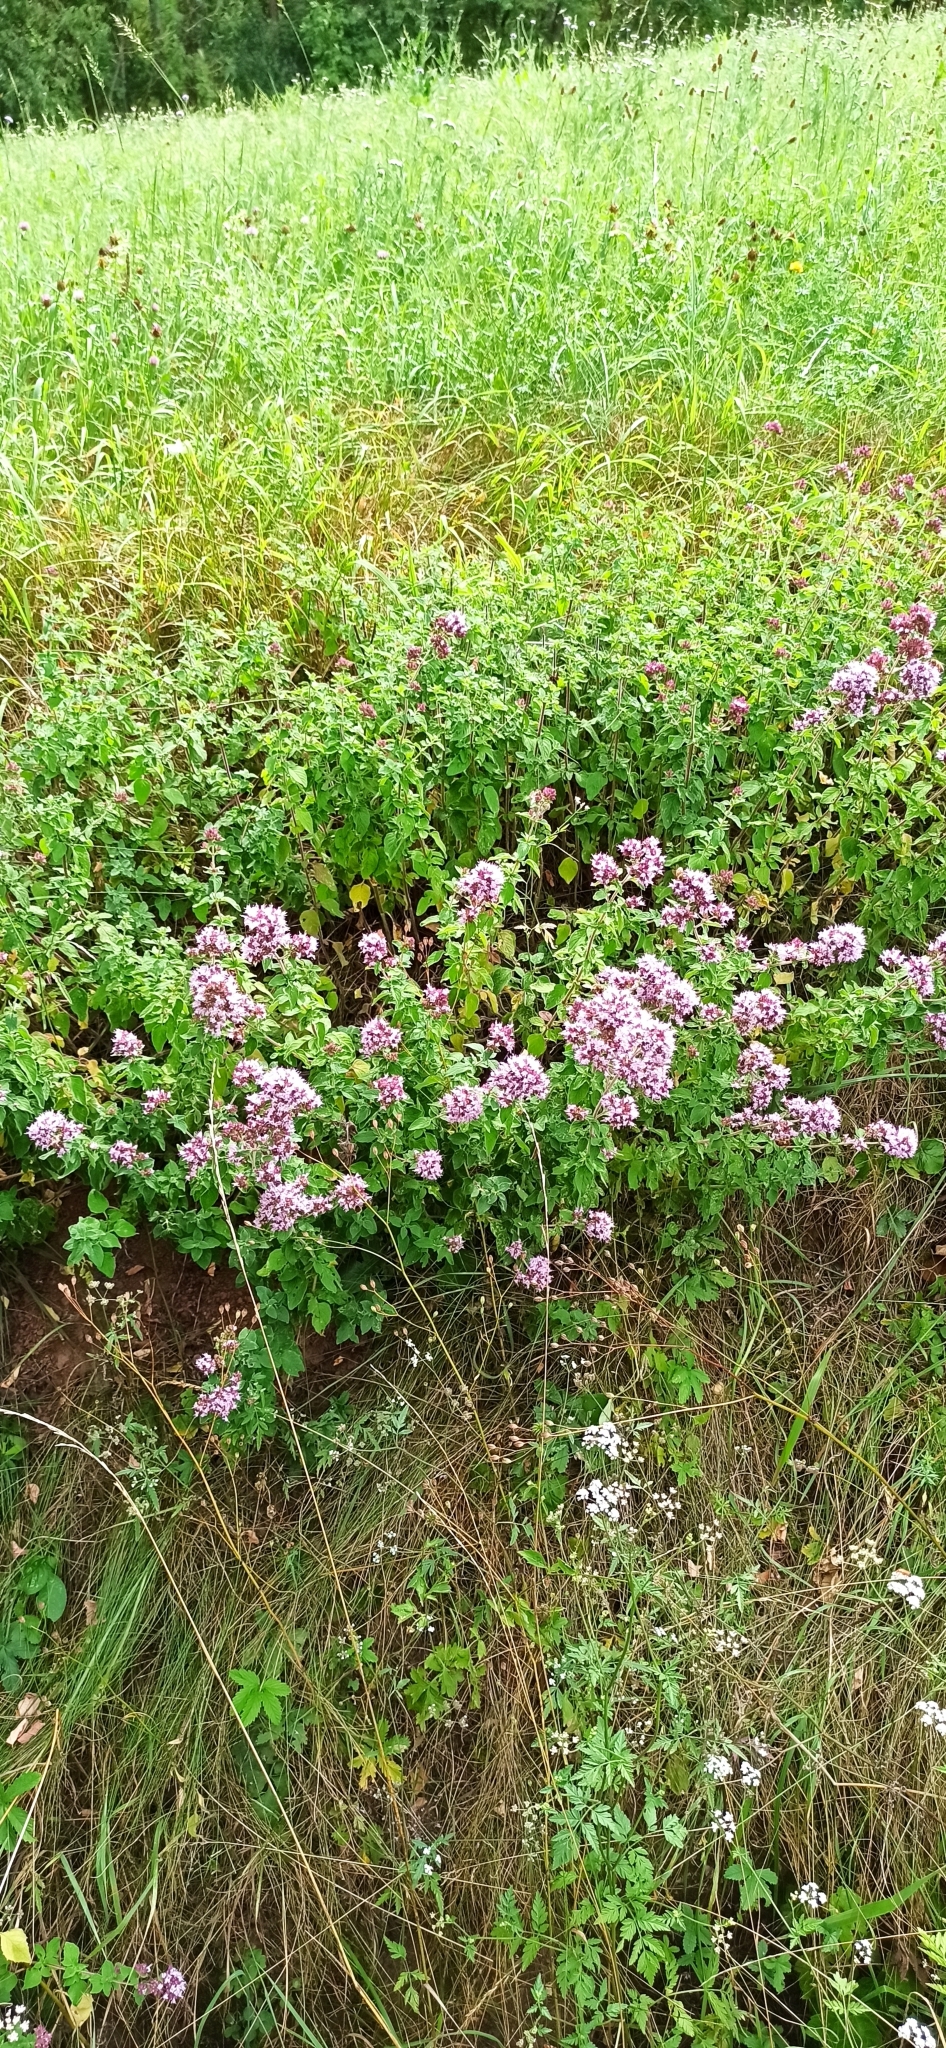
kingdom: Plantae
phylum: Tracheophyta
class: Magnoliopsida
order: Lamiales
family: Lamiaceae
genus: Origanum
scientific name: Origanum vulgare
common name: Wild marjoram
